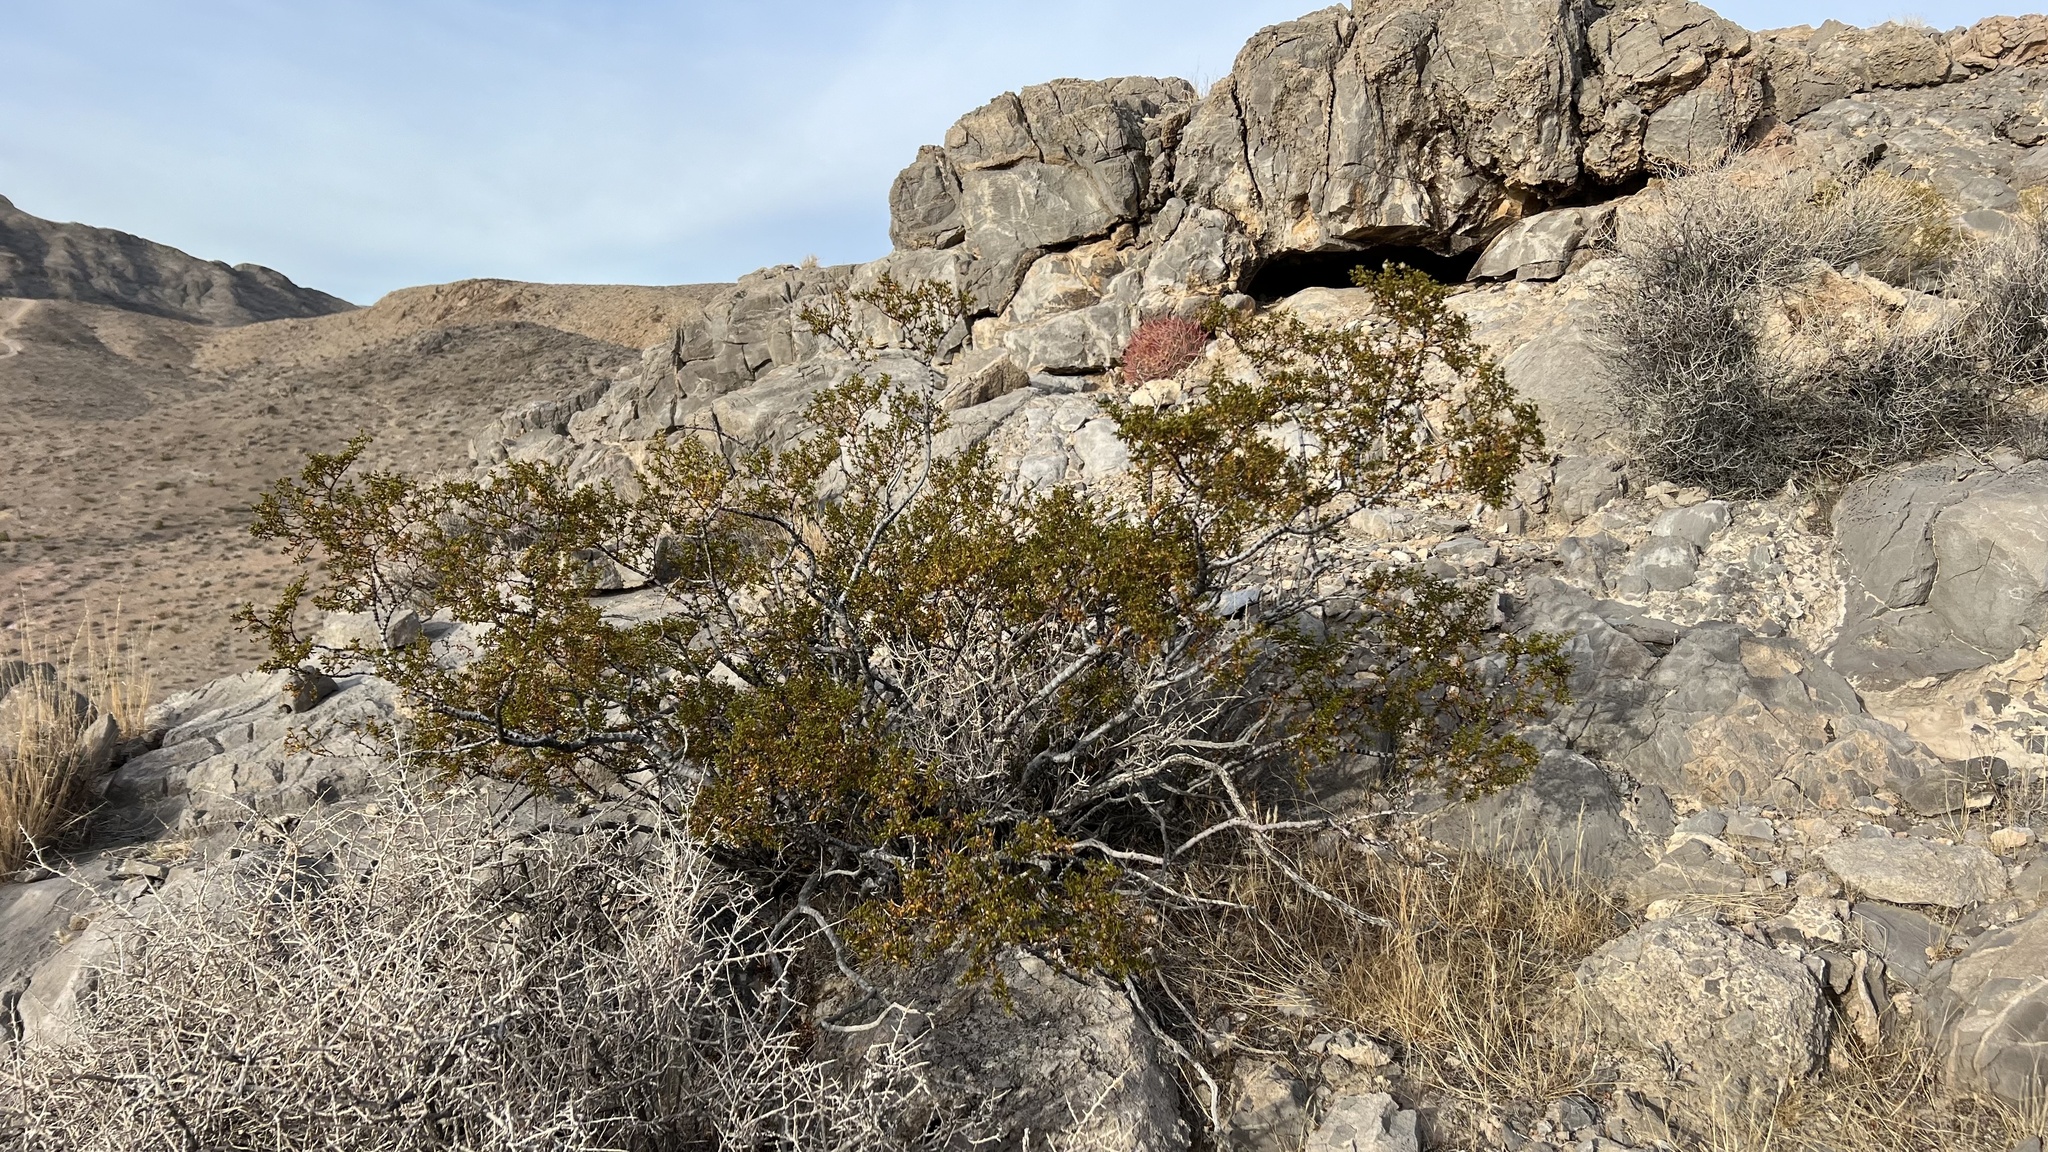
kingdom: Plantae
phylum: Tracheophyta
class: Magnoliopsida
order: Zygophyllales
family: Zygophyllaceae
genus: Larrea
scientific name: Larrea tridentata
